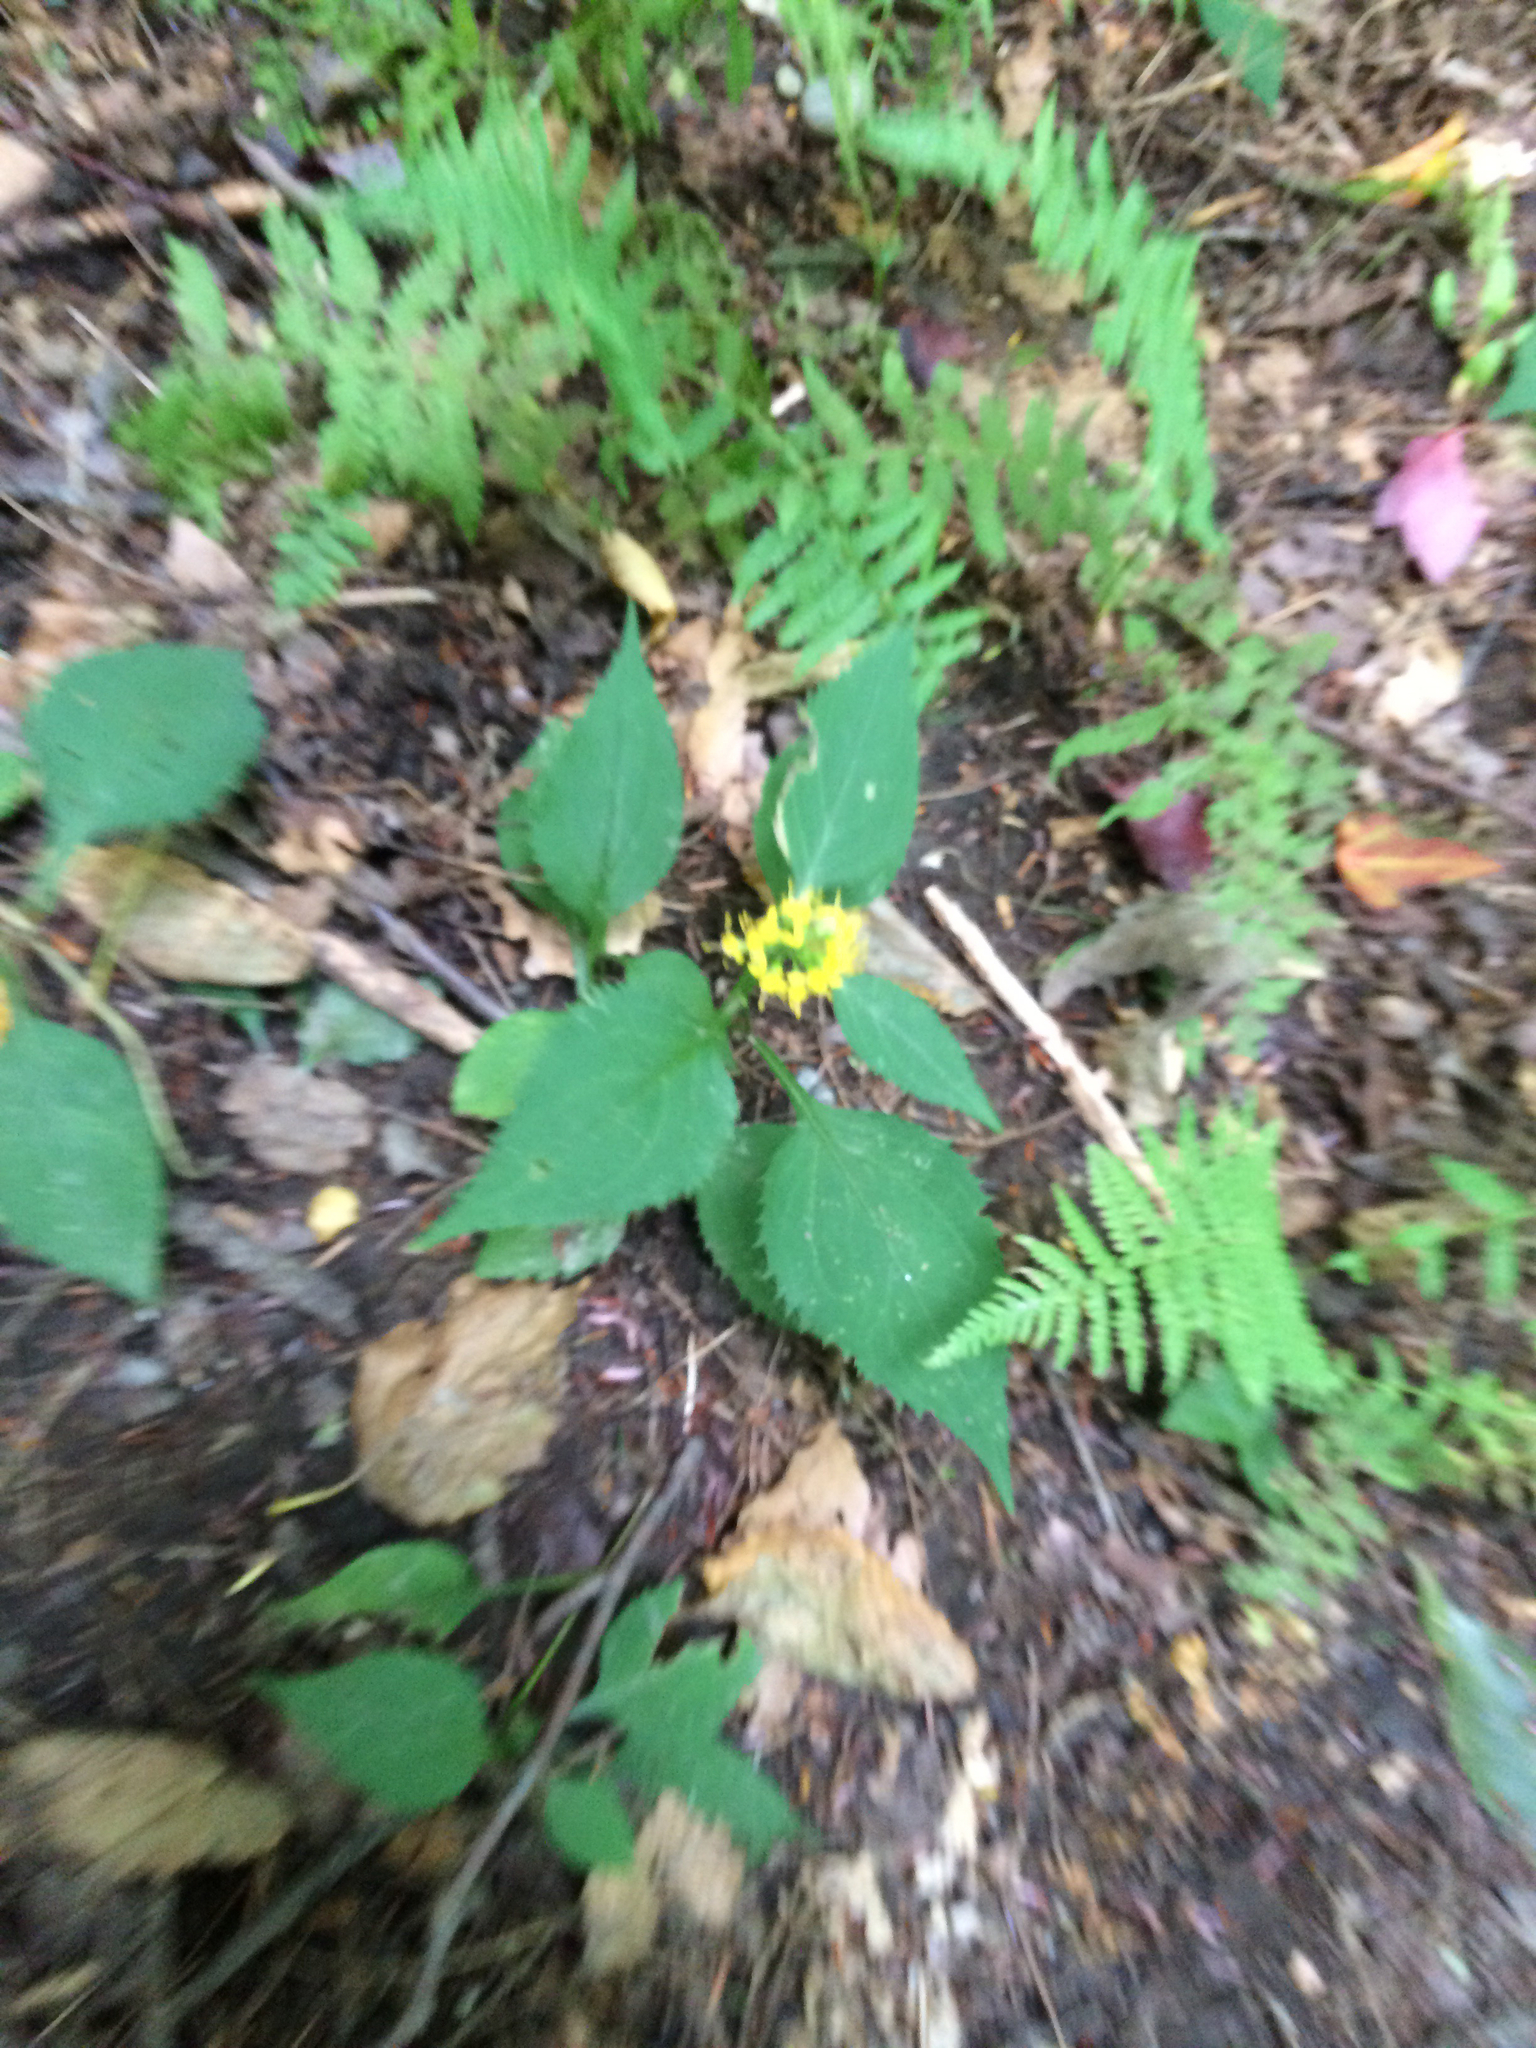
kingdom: Plantae
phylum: Tracheophyta
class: Magnoliopsida
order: Asterales
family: Asteraceae
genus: Solidago
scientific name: Solidago flexicaulis
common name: Zig-zag goldenrod
